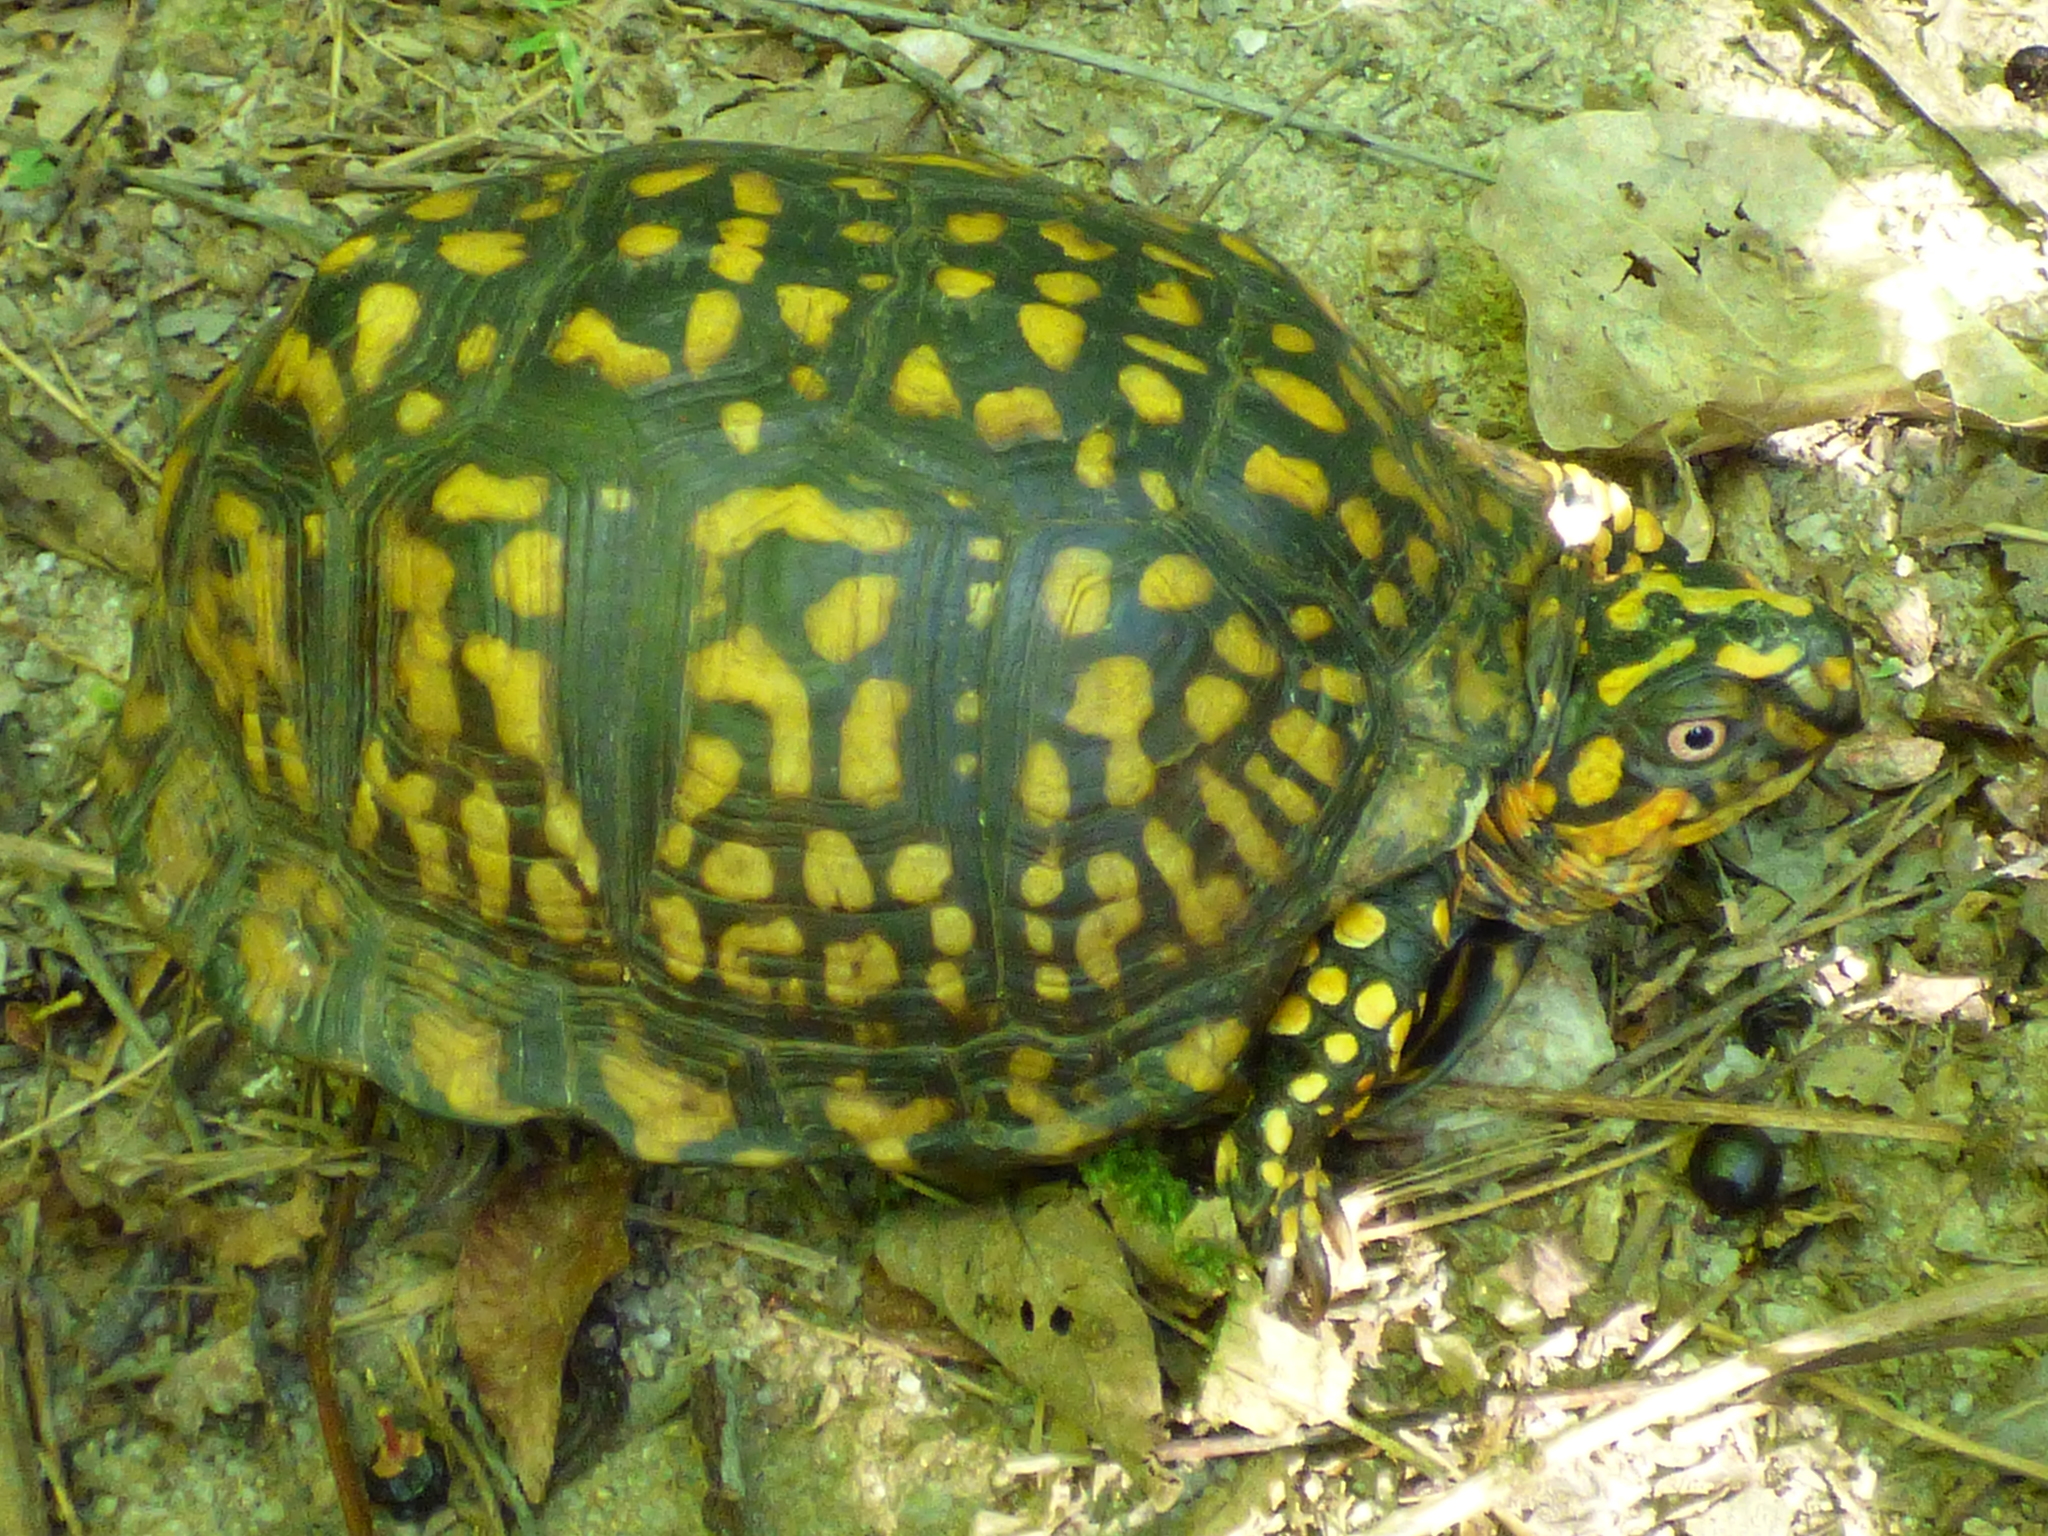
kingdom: Animalia
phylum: Chordata
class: Testudines
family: Emydidae
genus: Terrapene
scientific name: Terrapene carolina
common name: Common box turtle
